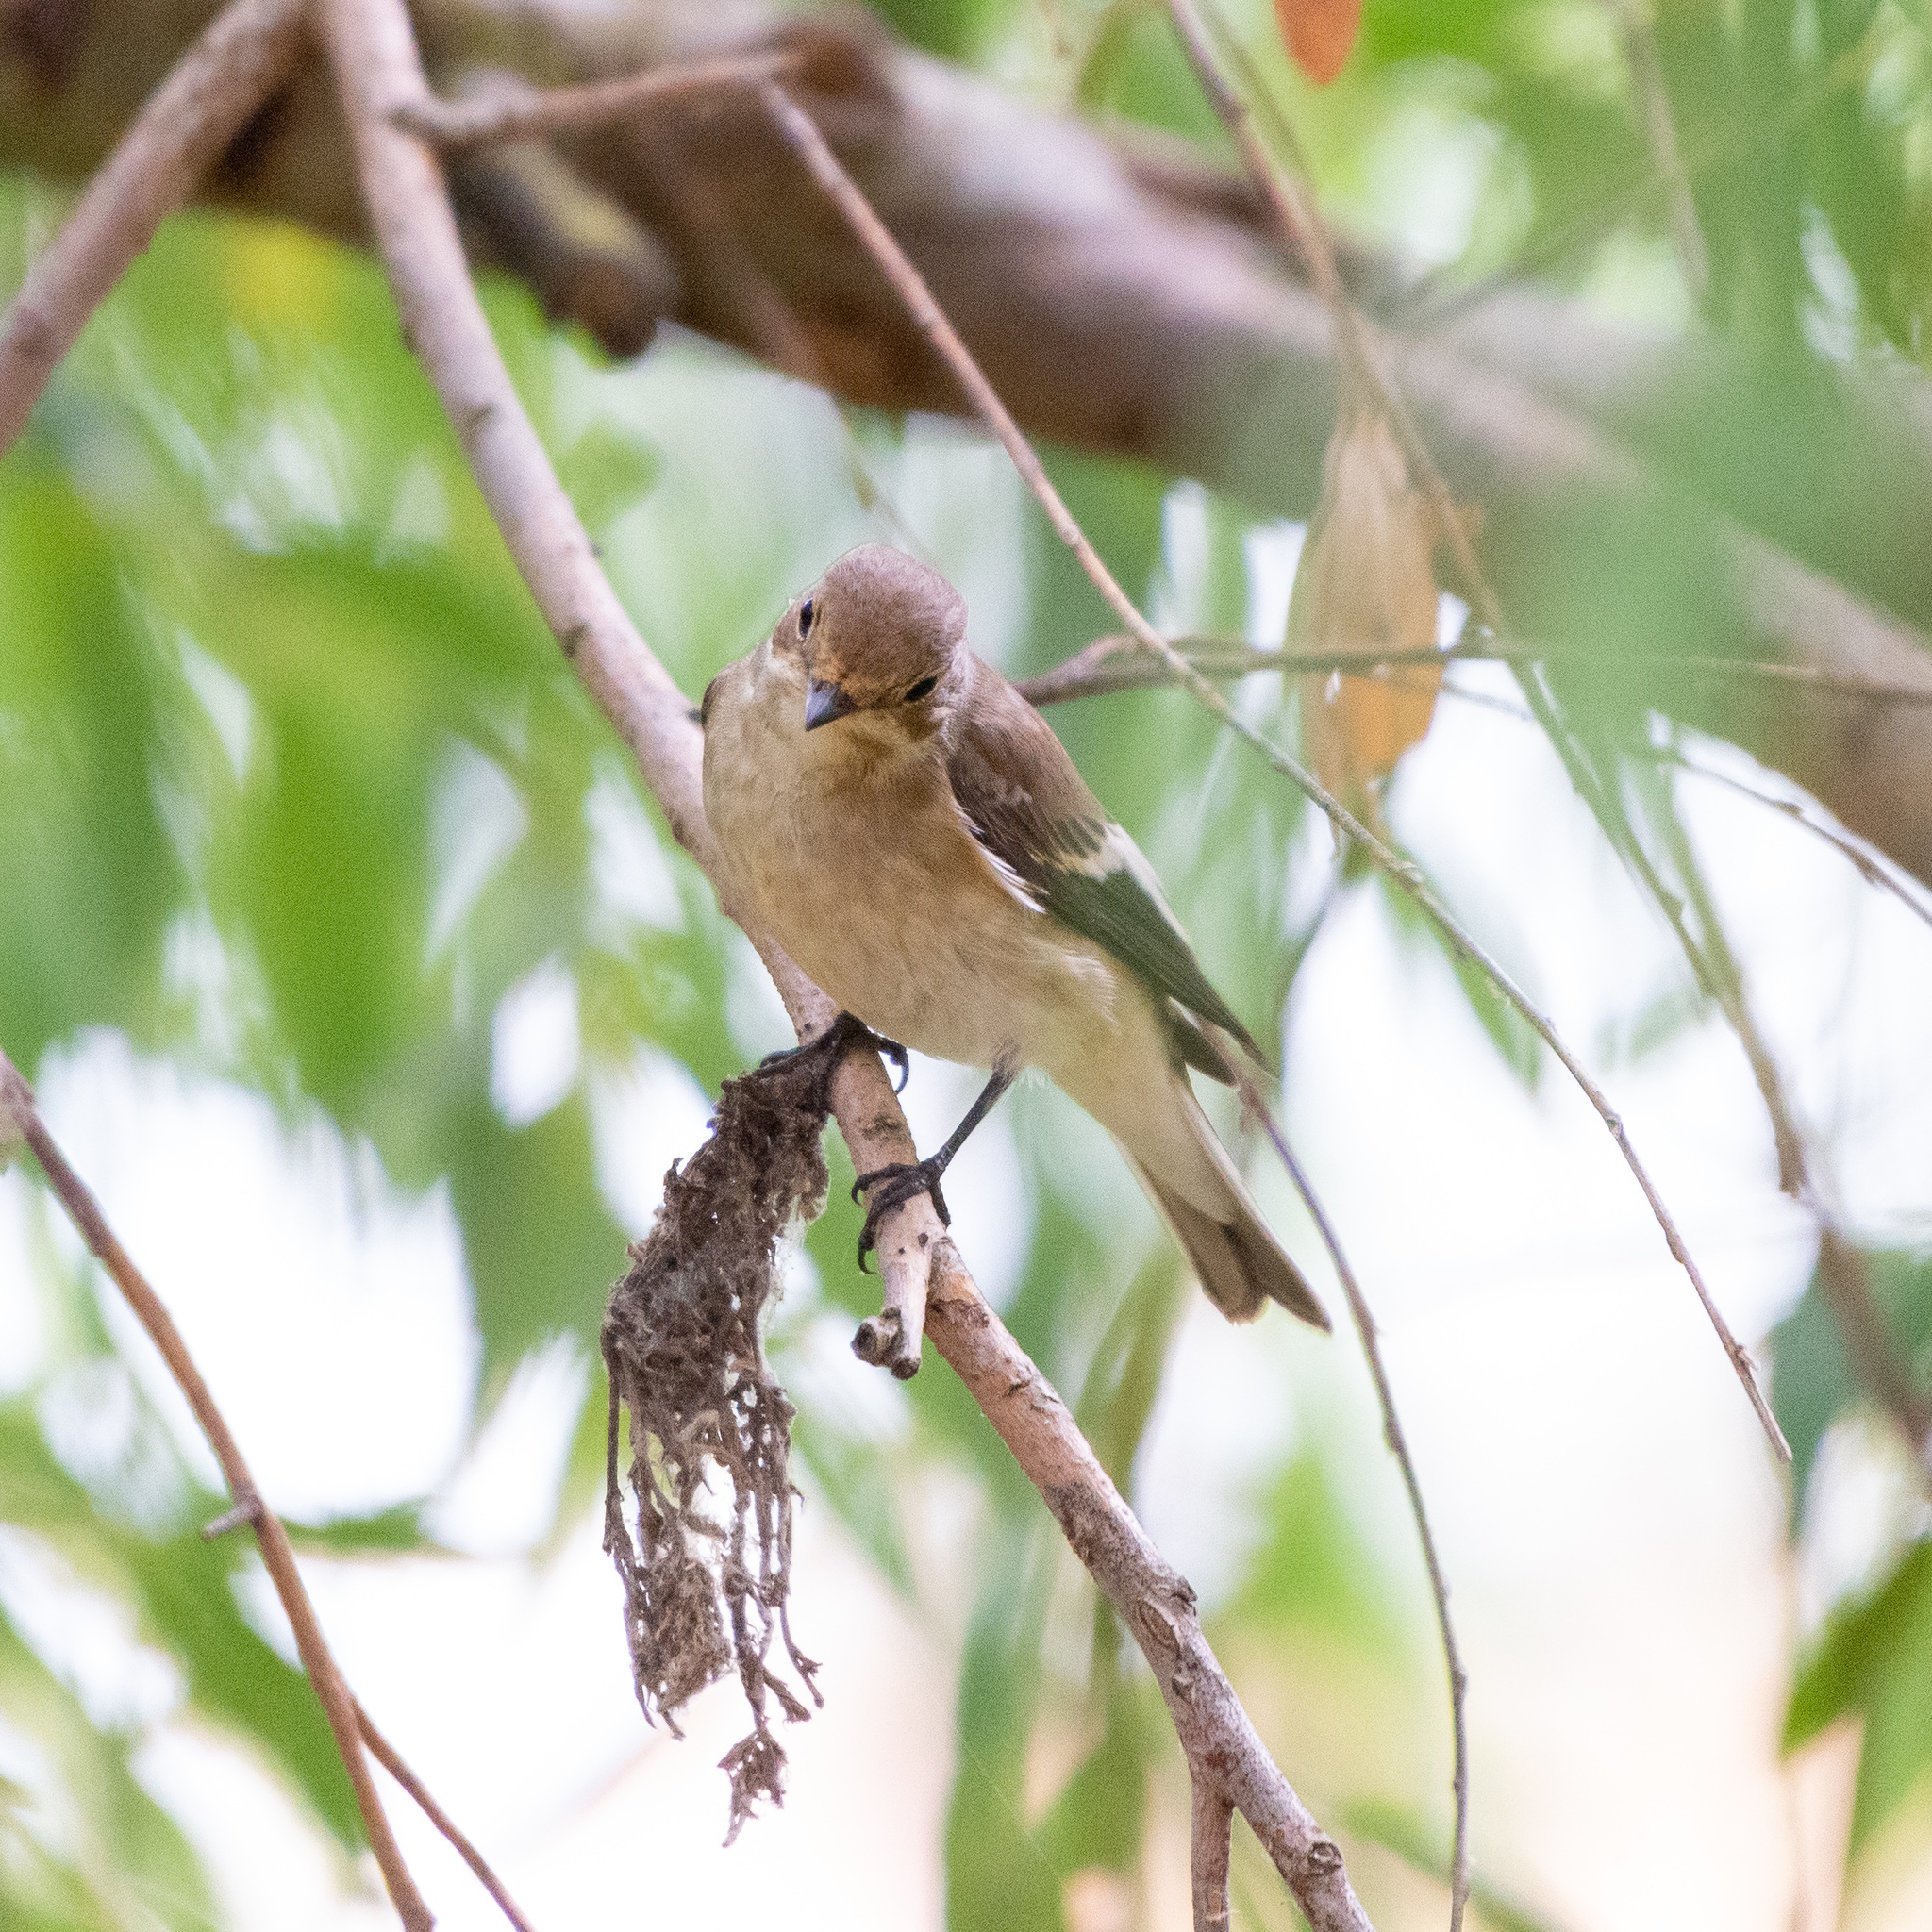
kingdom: Animalia
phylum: Chordata
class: Aves
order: Passeriformes
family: Muscicapidae
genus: Ficedula
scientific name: Ficedula hypoleuca
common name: European pied flycatcher
